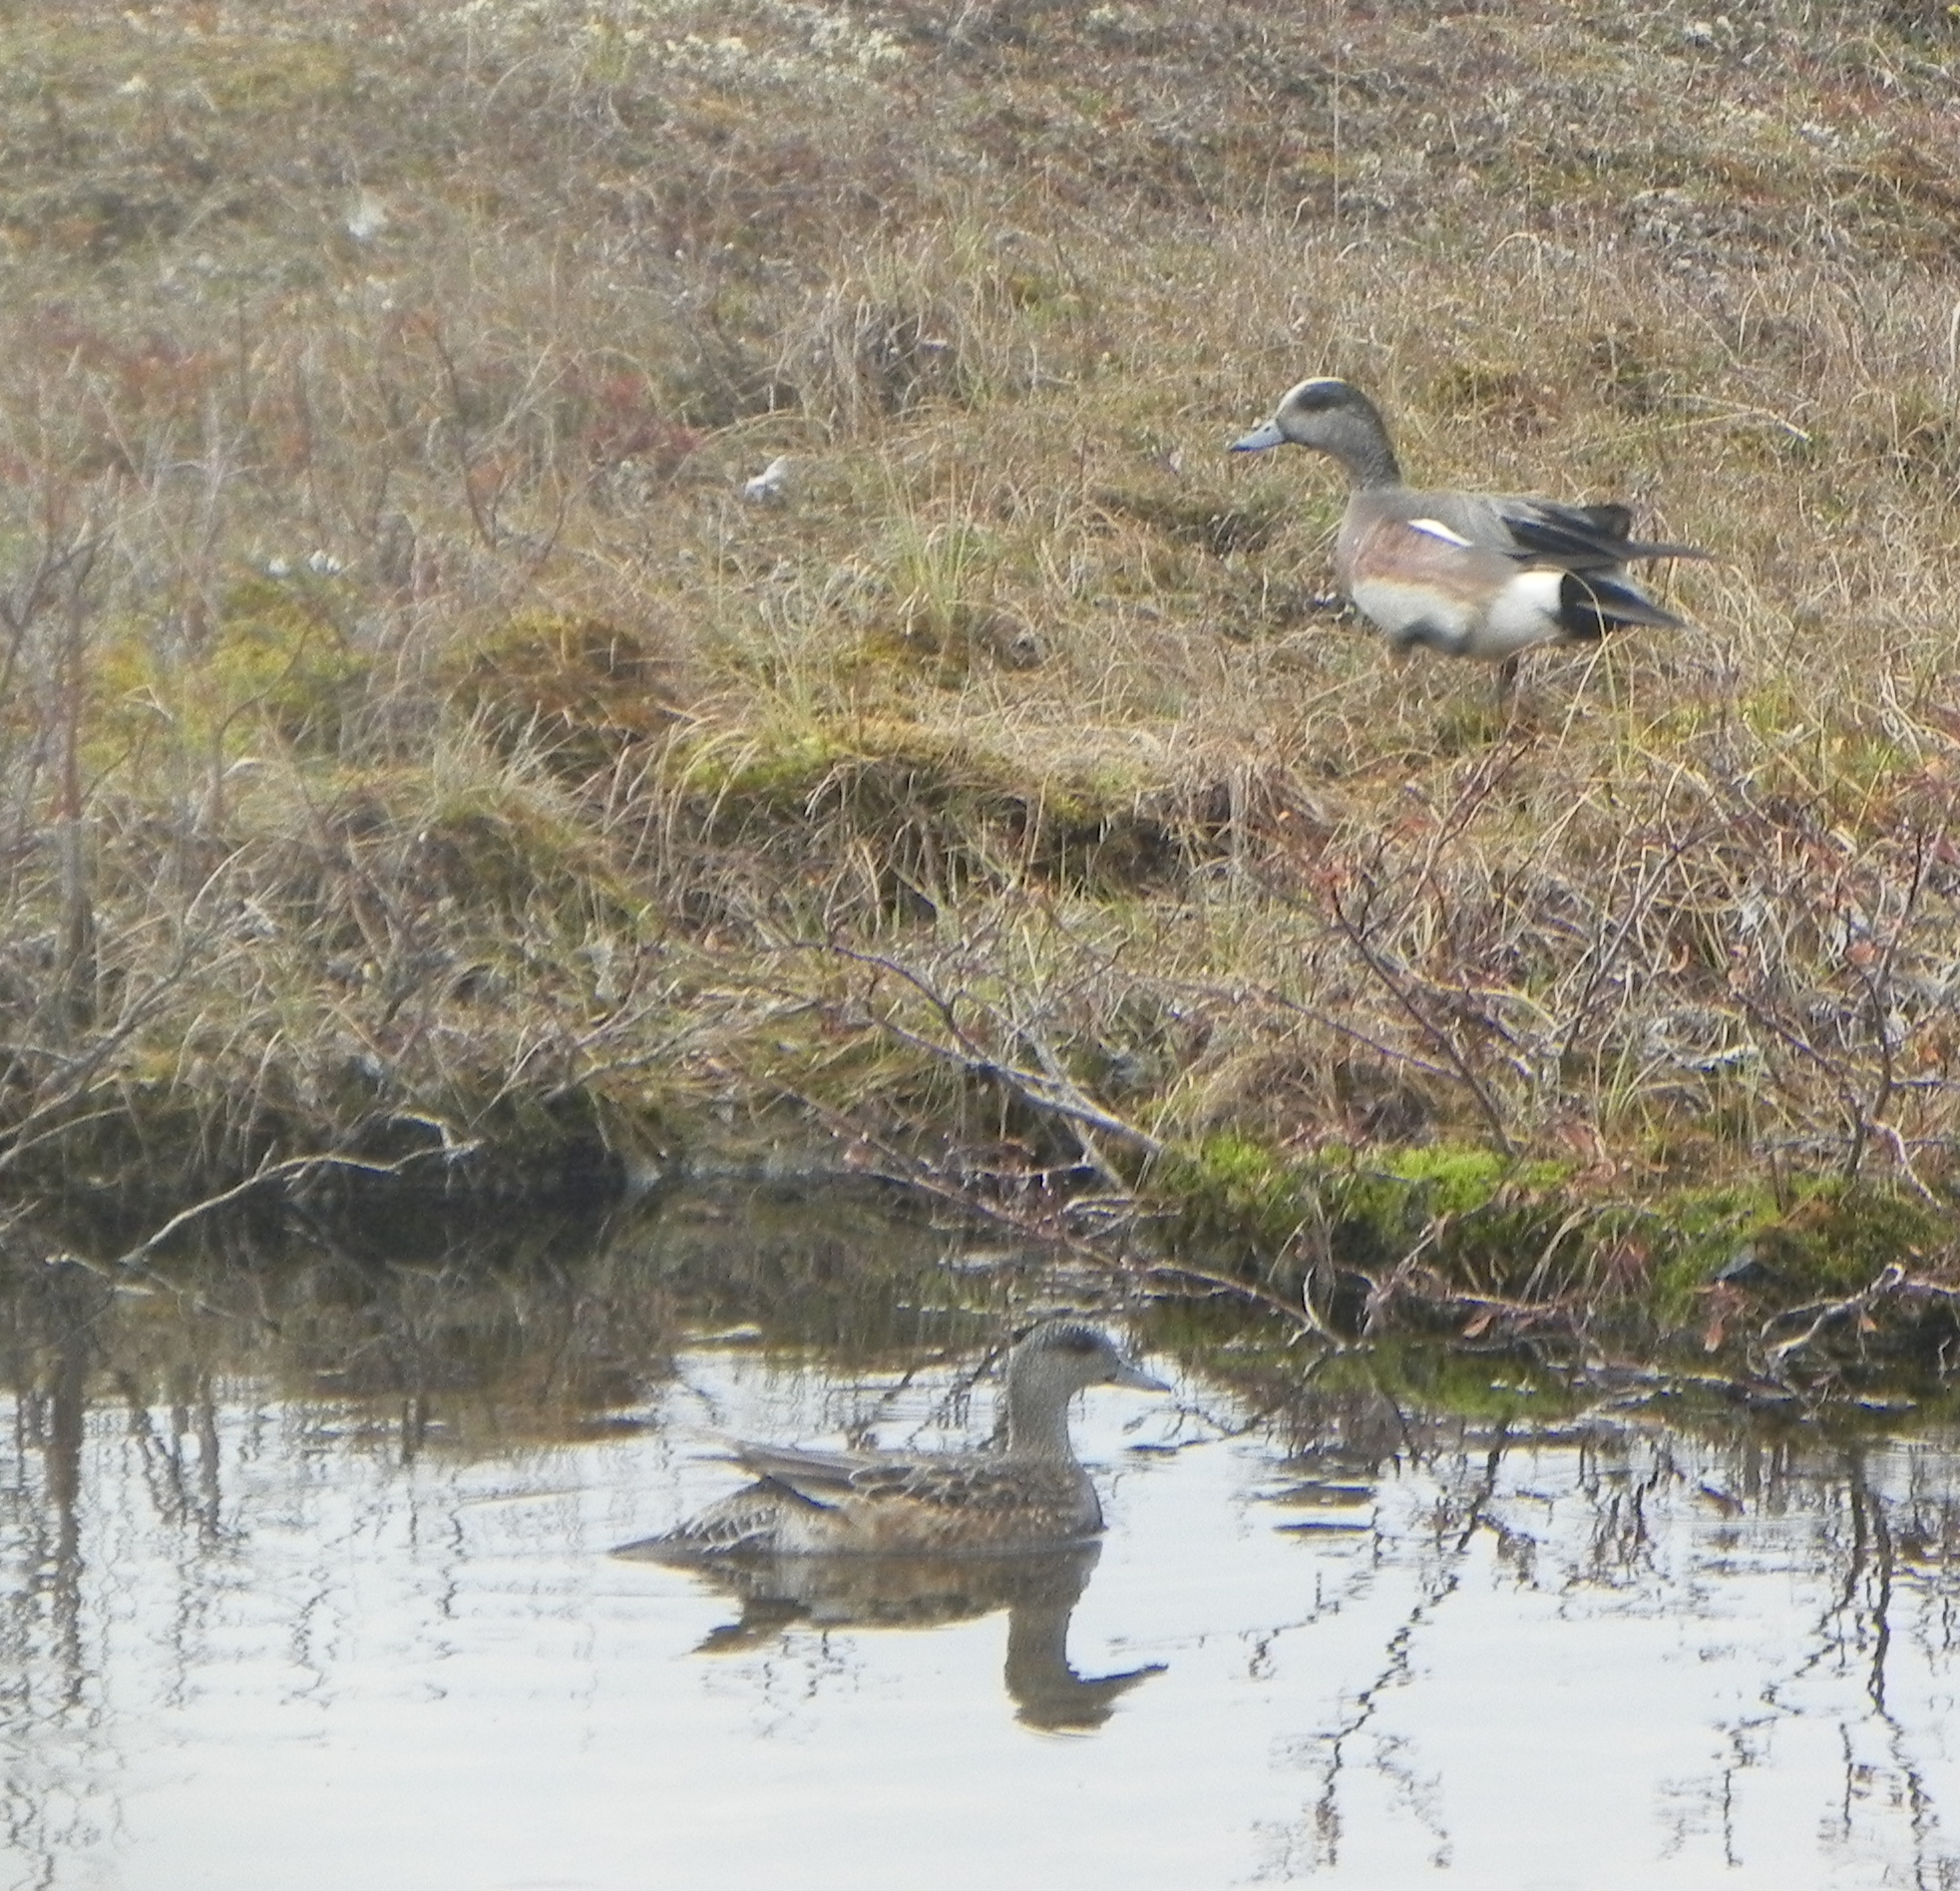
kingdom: Animalia
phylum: Chordata
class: Aves
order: Anseriformes
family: Anatidae
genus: Mareca
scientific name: Mareca americana
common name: American wigeon
